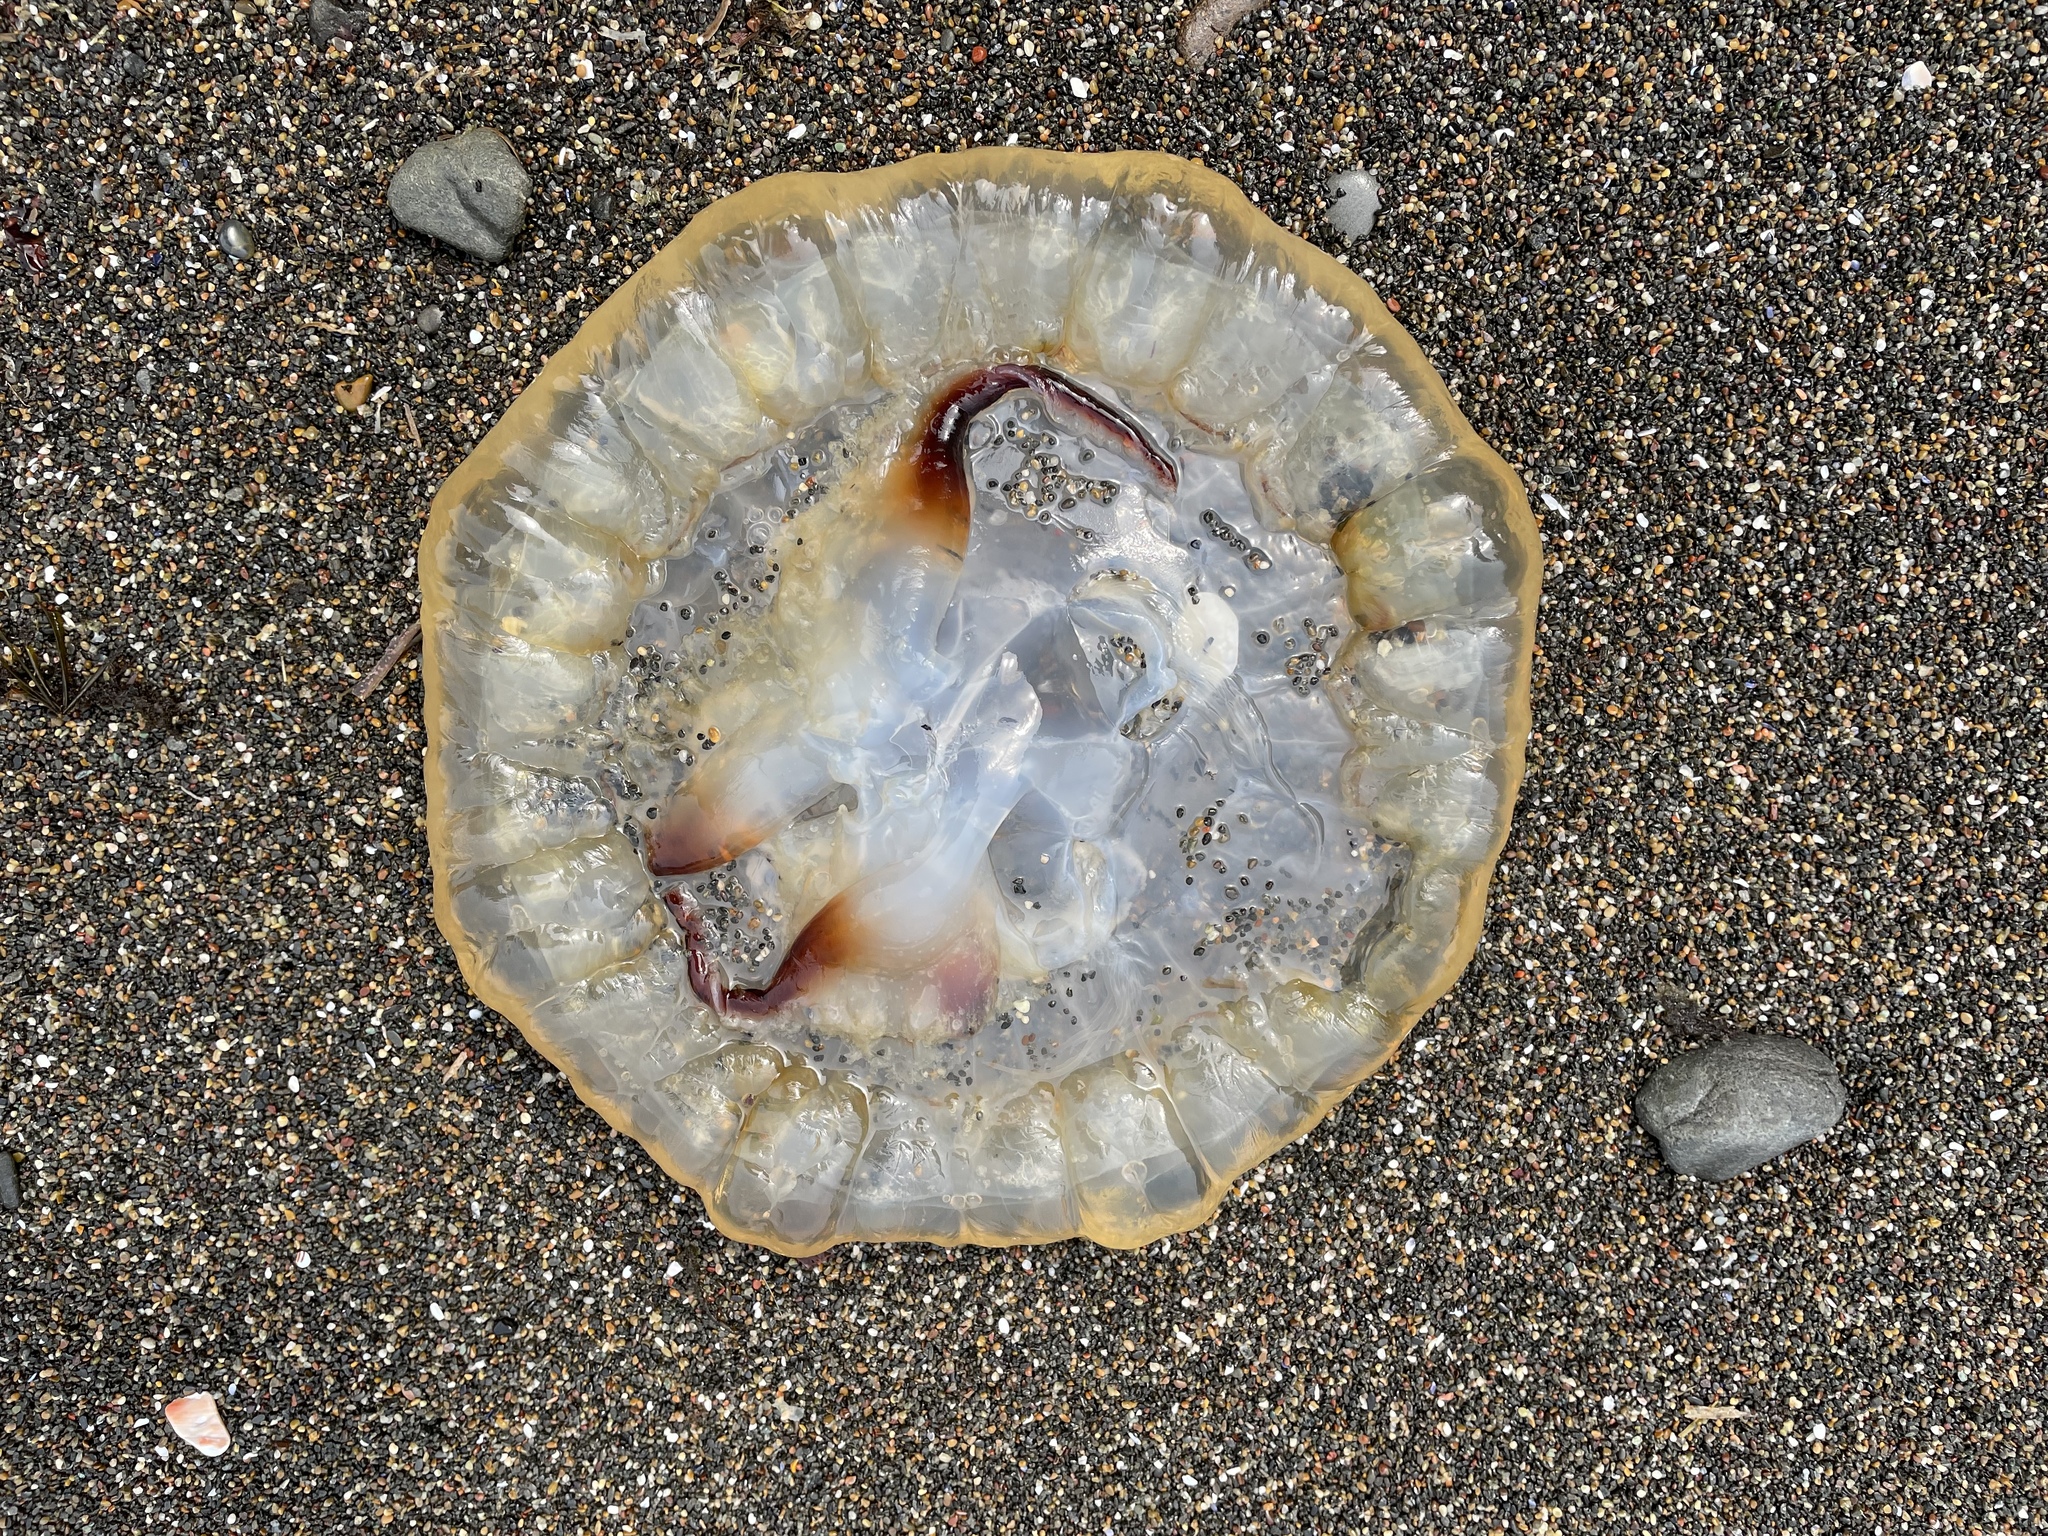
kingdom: Animalia
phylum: Cnidaria
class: Scyphozoa
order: Semaeostomeae
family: Pelagiidae
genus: Chrysaora
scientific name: Chrysaora fuscescens
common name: Sea nettle
